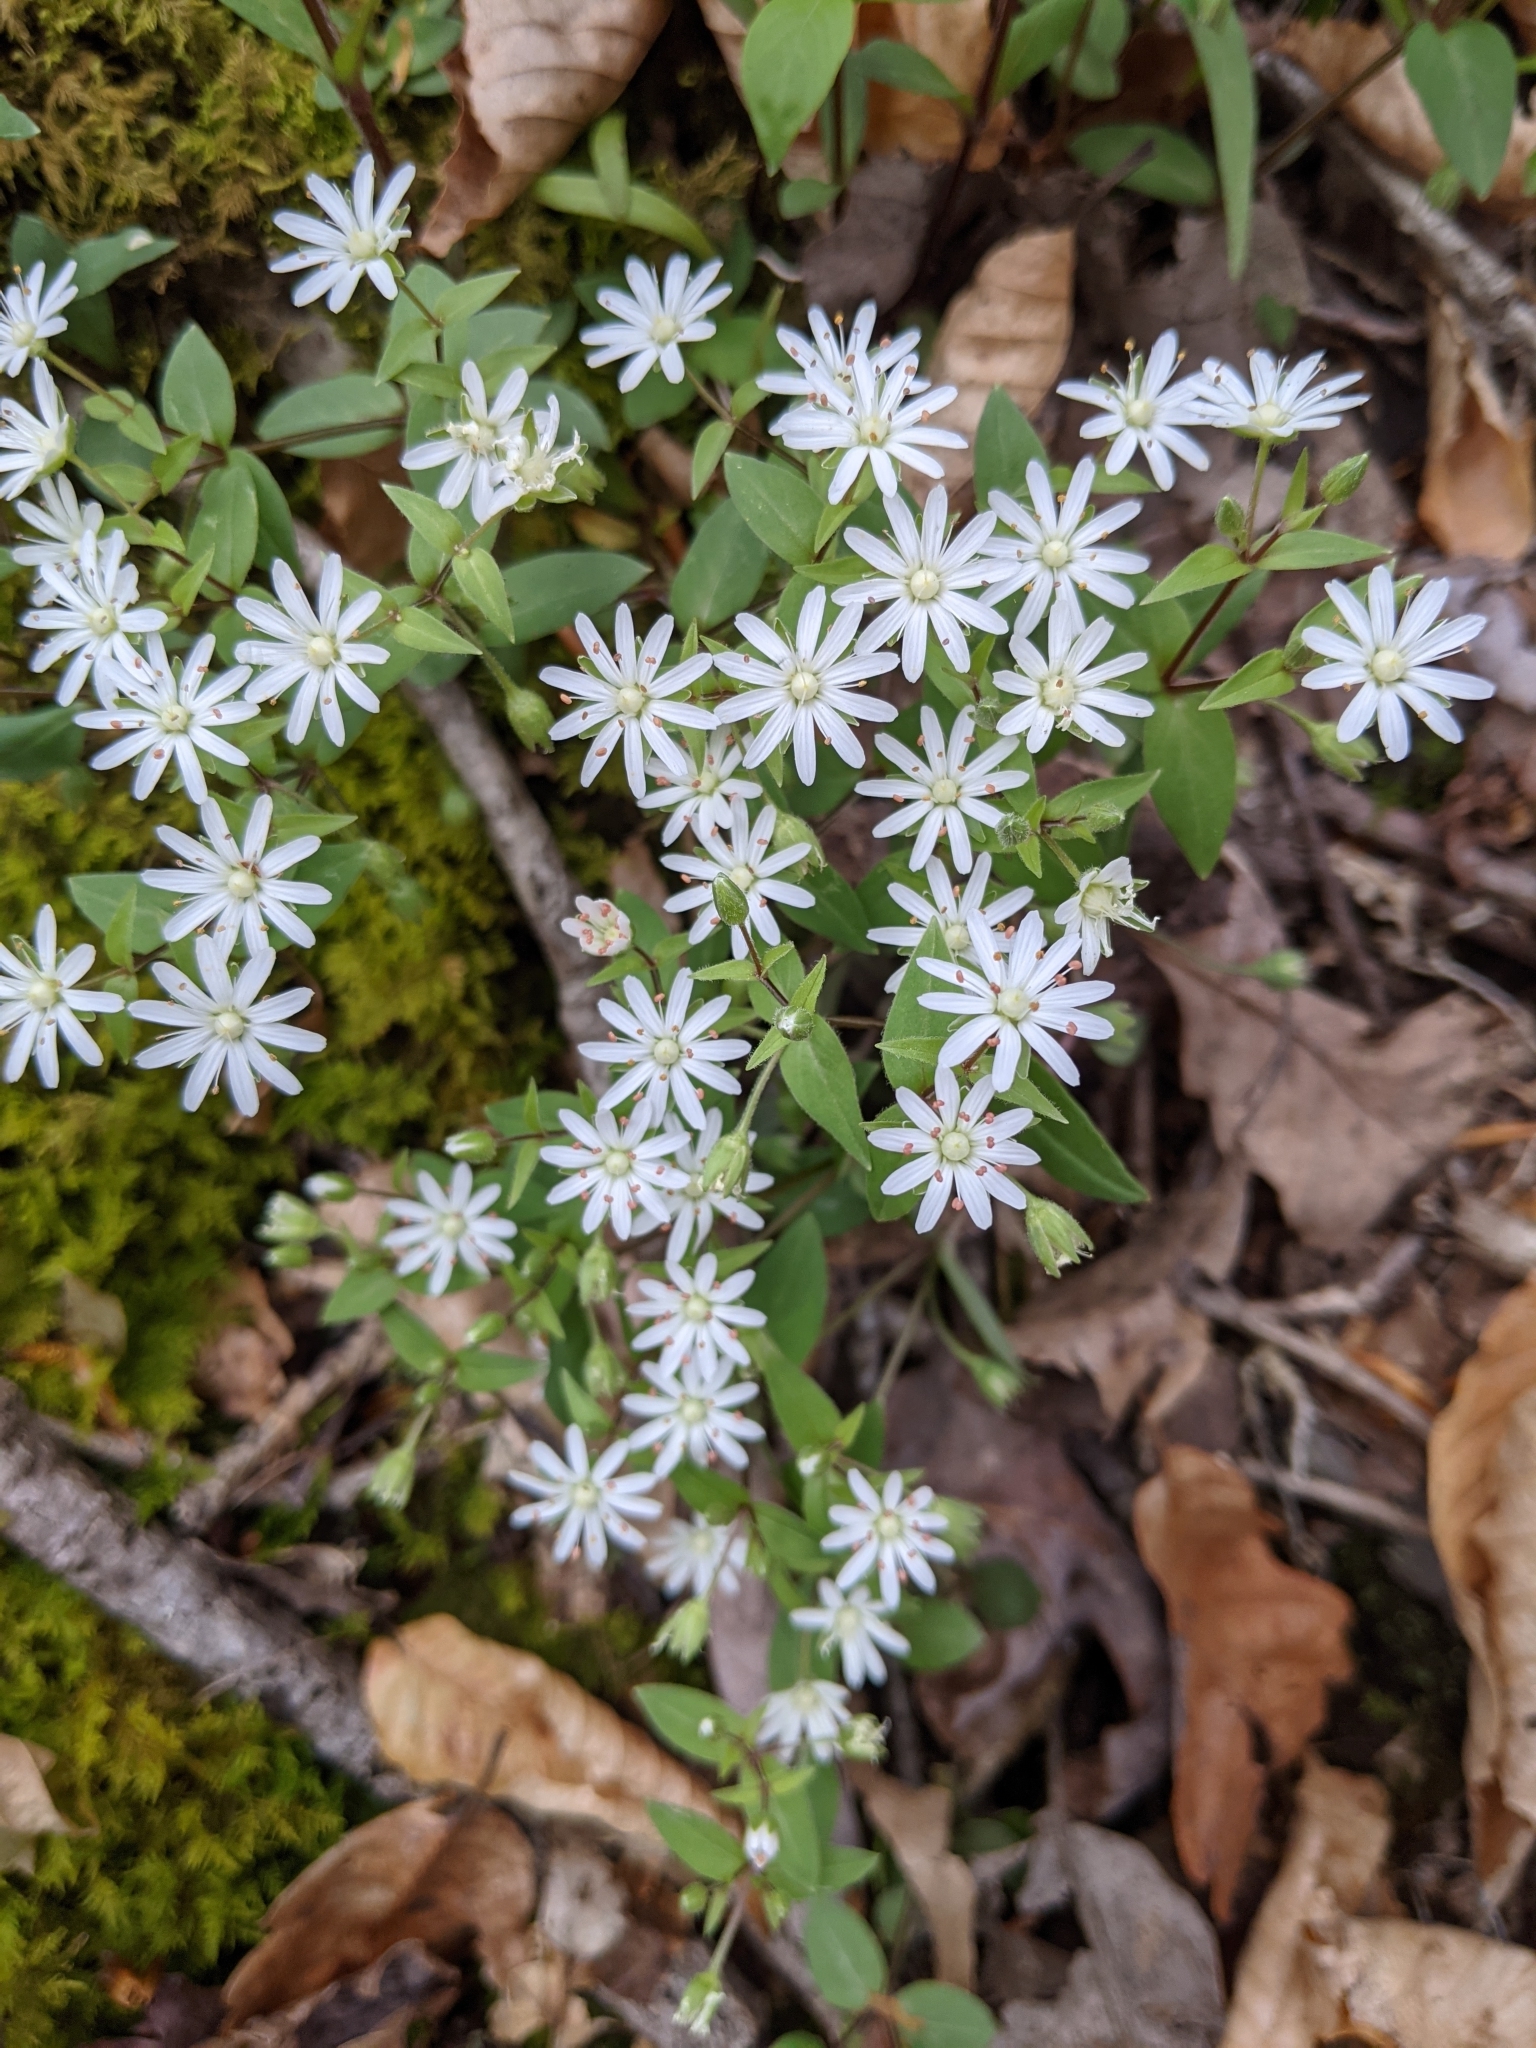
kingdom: Plantae
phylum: Tracheophyta
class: Magnoliopsida
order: Caryophyllales
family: Caryophyllaceae
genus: Stellaria
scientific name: Stellaria pubera
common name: Star chickweed
